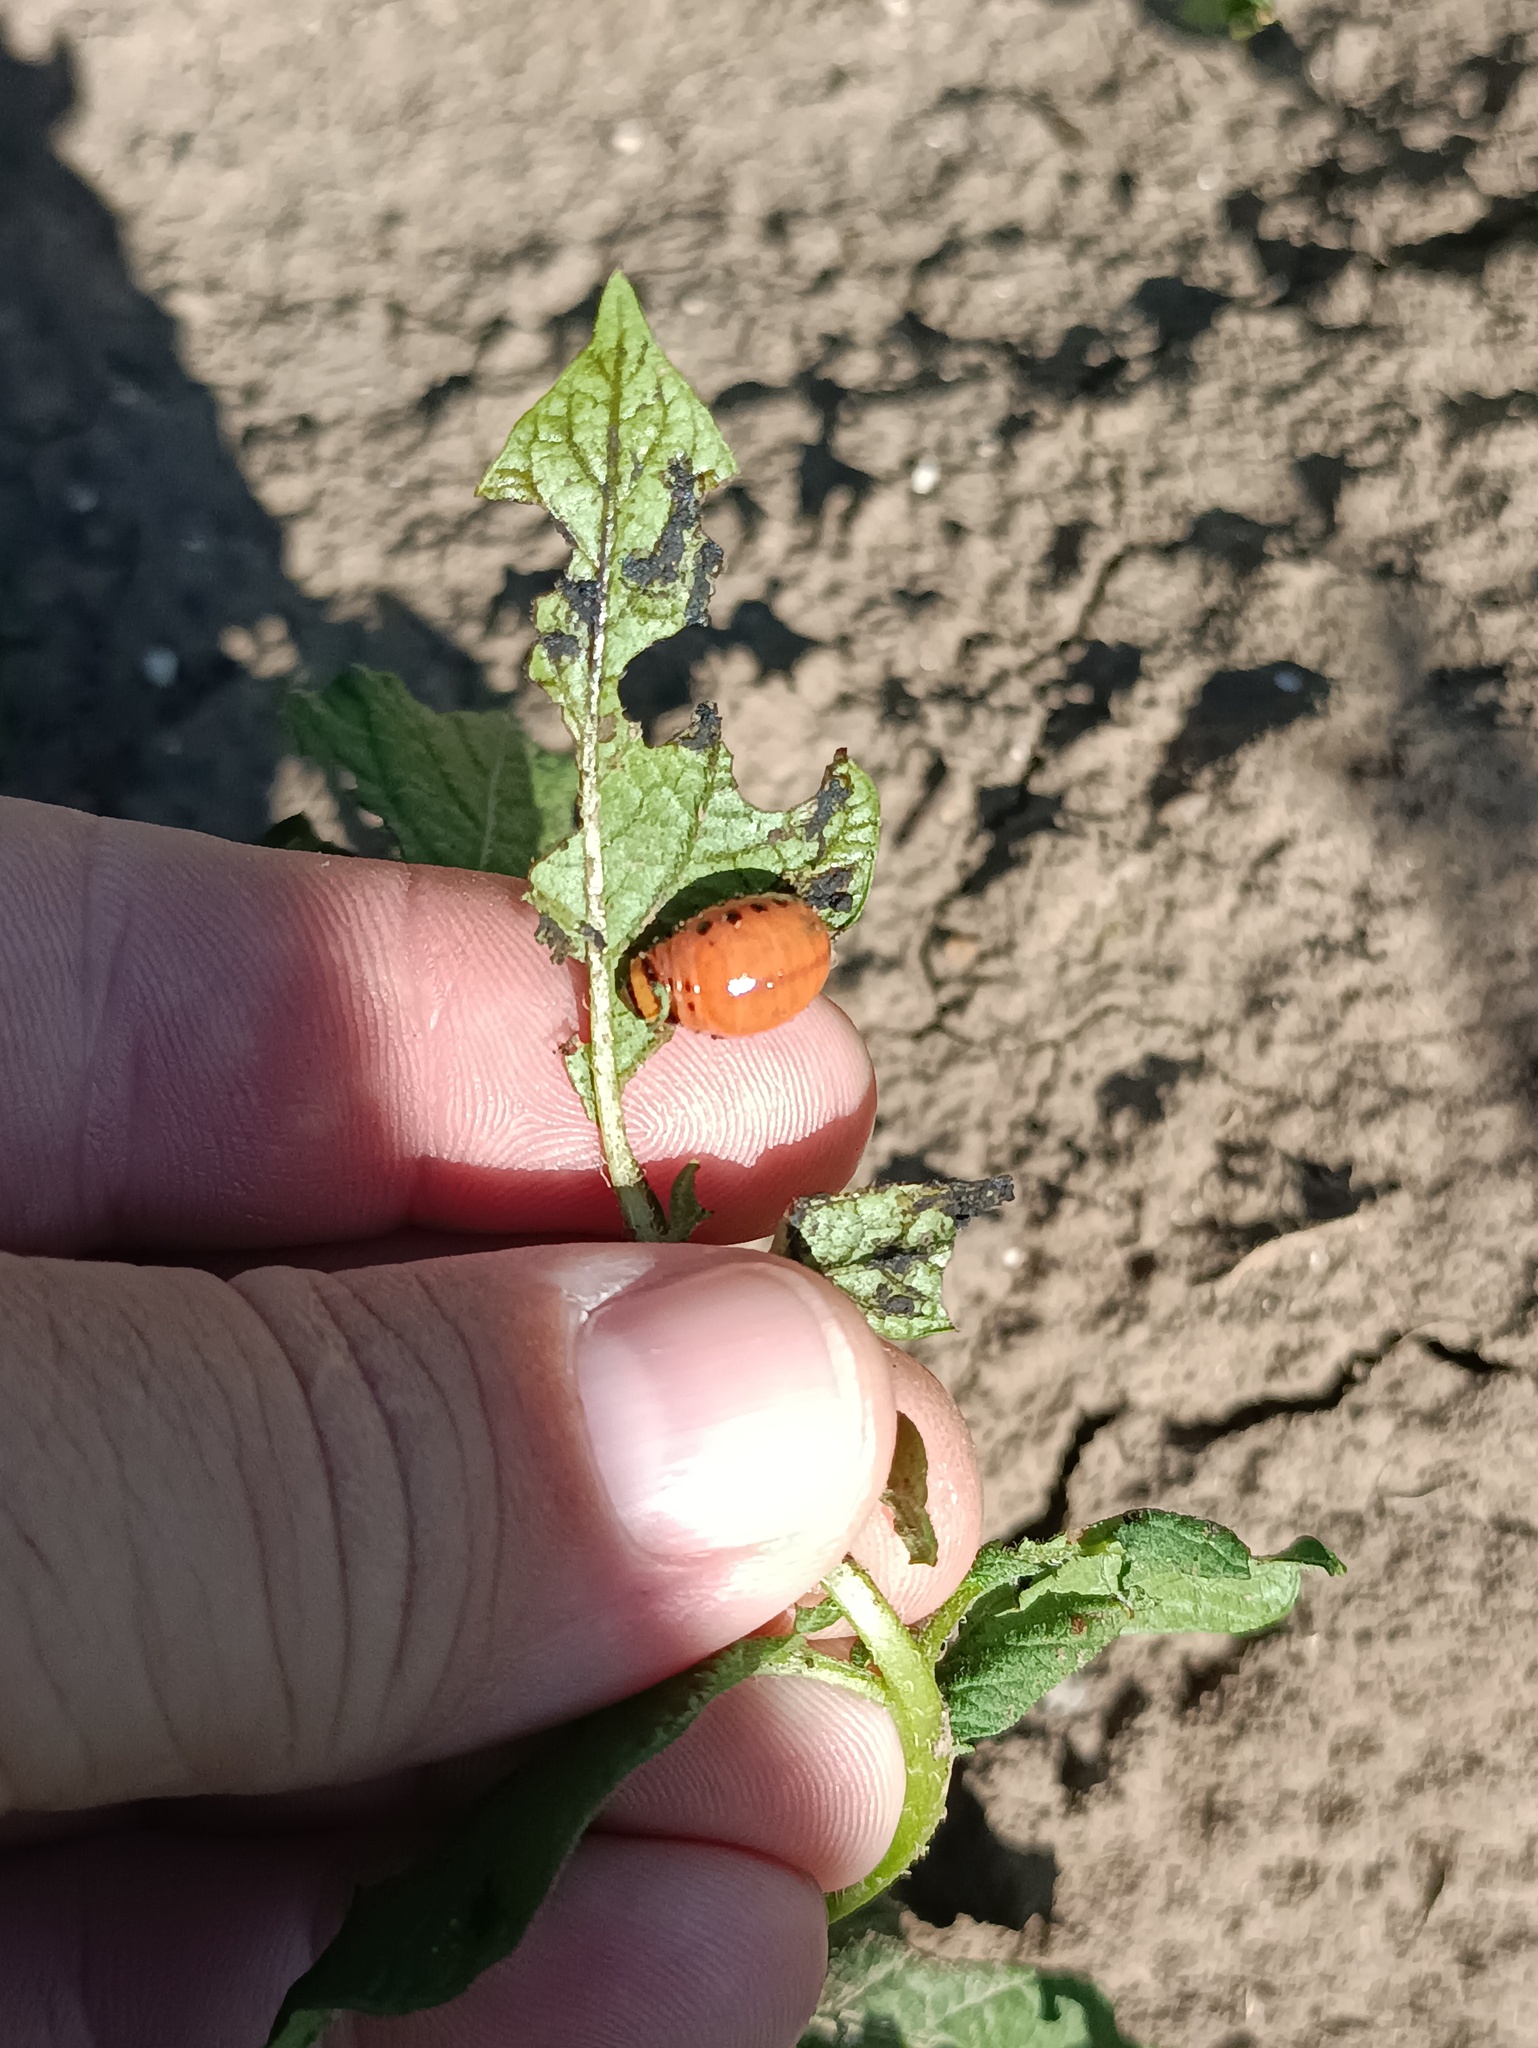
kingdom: Animalia
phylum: Arthropoda
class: Insecta
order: Coleoptera
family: Chrysomelidae
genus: Leptinotarsa
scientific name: Leptinotarsa decemlineata
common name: Colorado potato beetle
